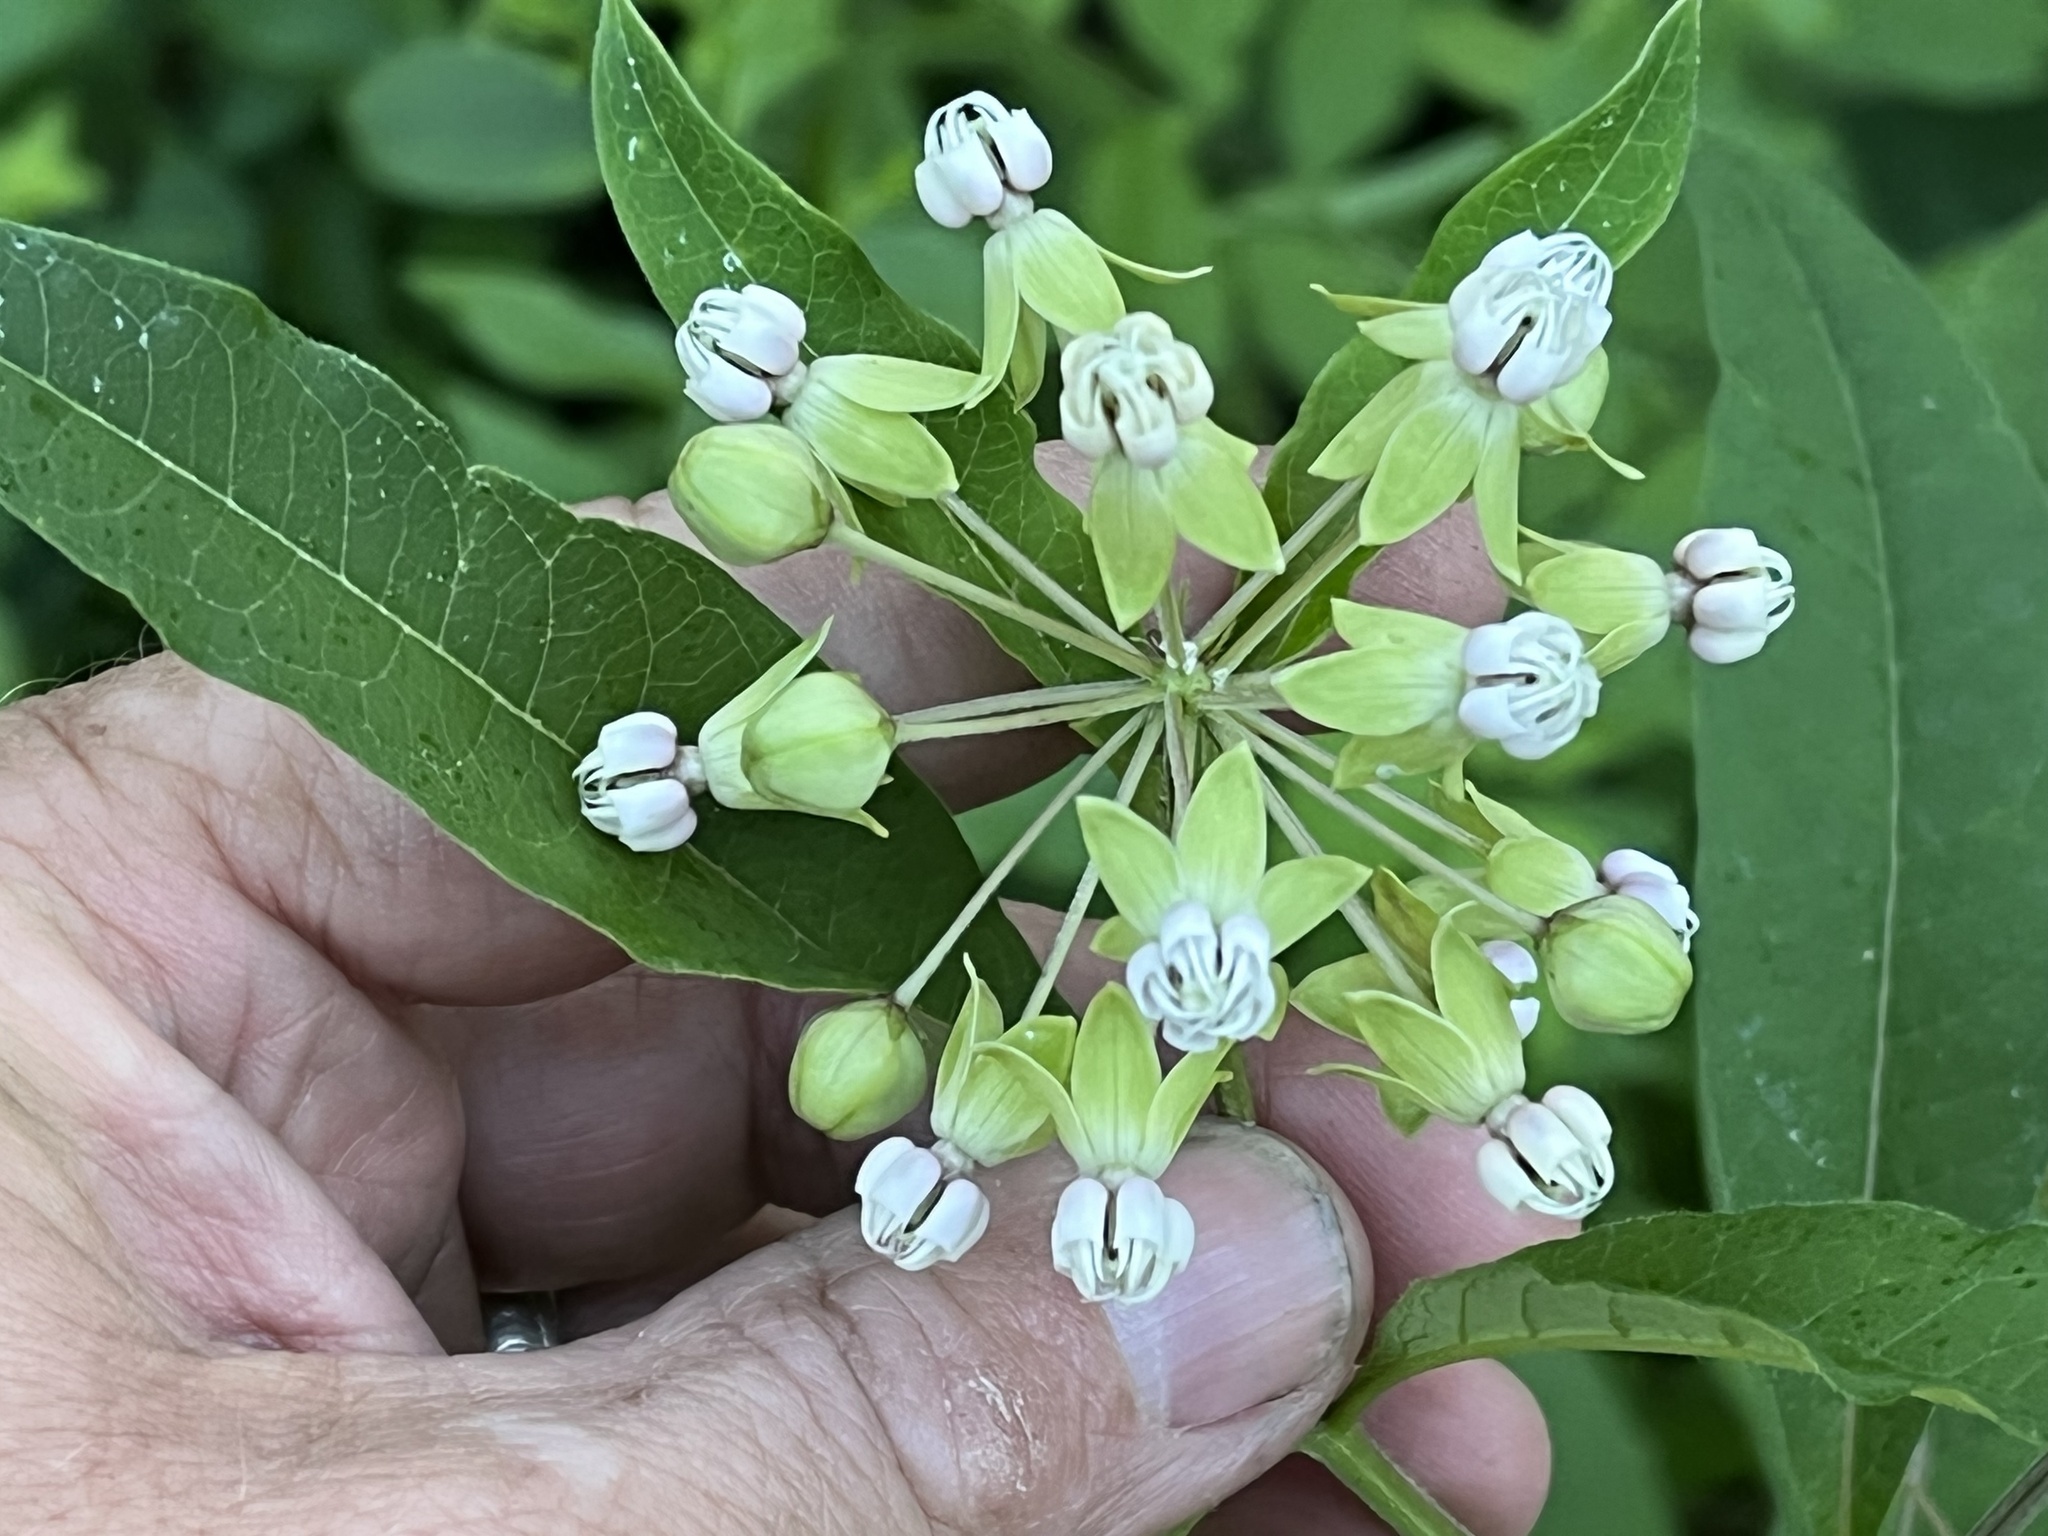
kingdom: Plantae
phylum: Tracheophyta
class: Magnoliopsida
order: Gentianales
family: Apocynaceae
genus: Asclepias
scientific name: Asclepias exaltata
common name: Poke milkweed
